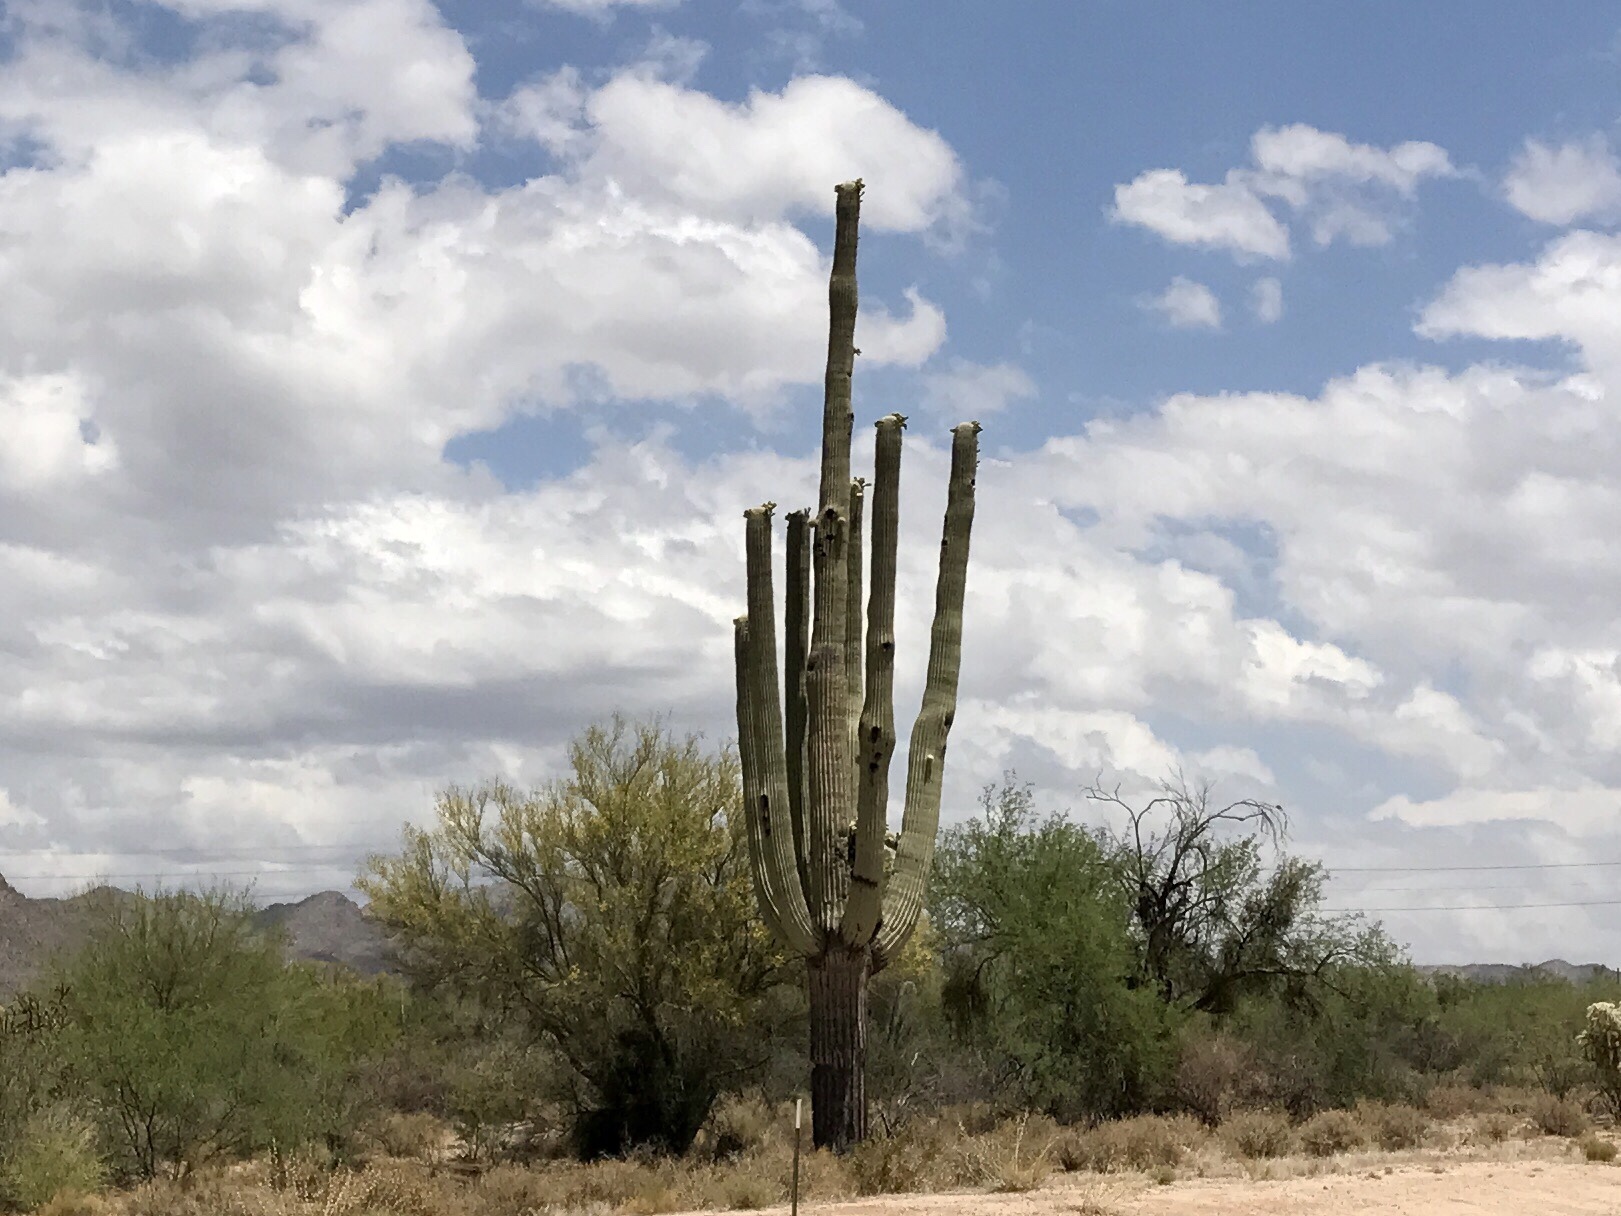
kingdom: Plantae
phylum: Tracheophyta
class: Magnoliopsida
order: Caryophyllales
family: Cactaceae
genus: Carnegiea
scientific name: Carnegiea gigantea
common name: Saguaro
